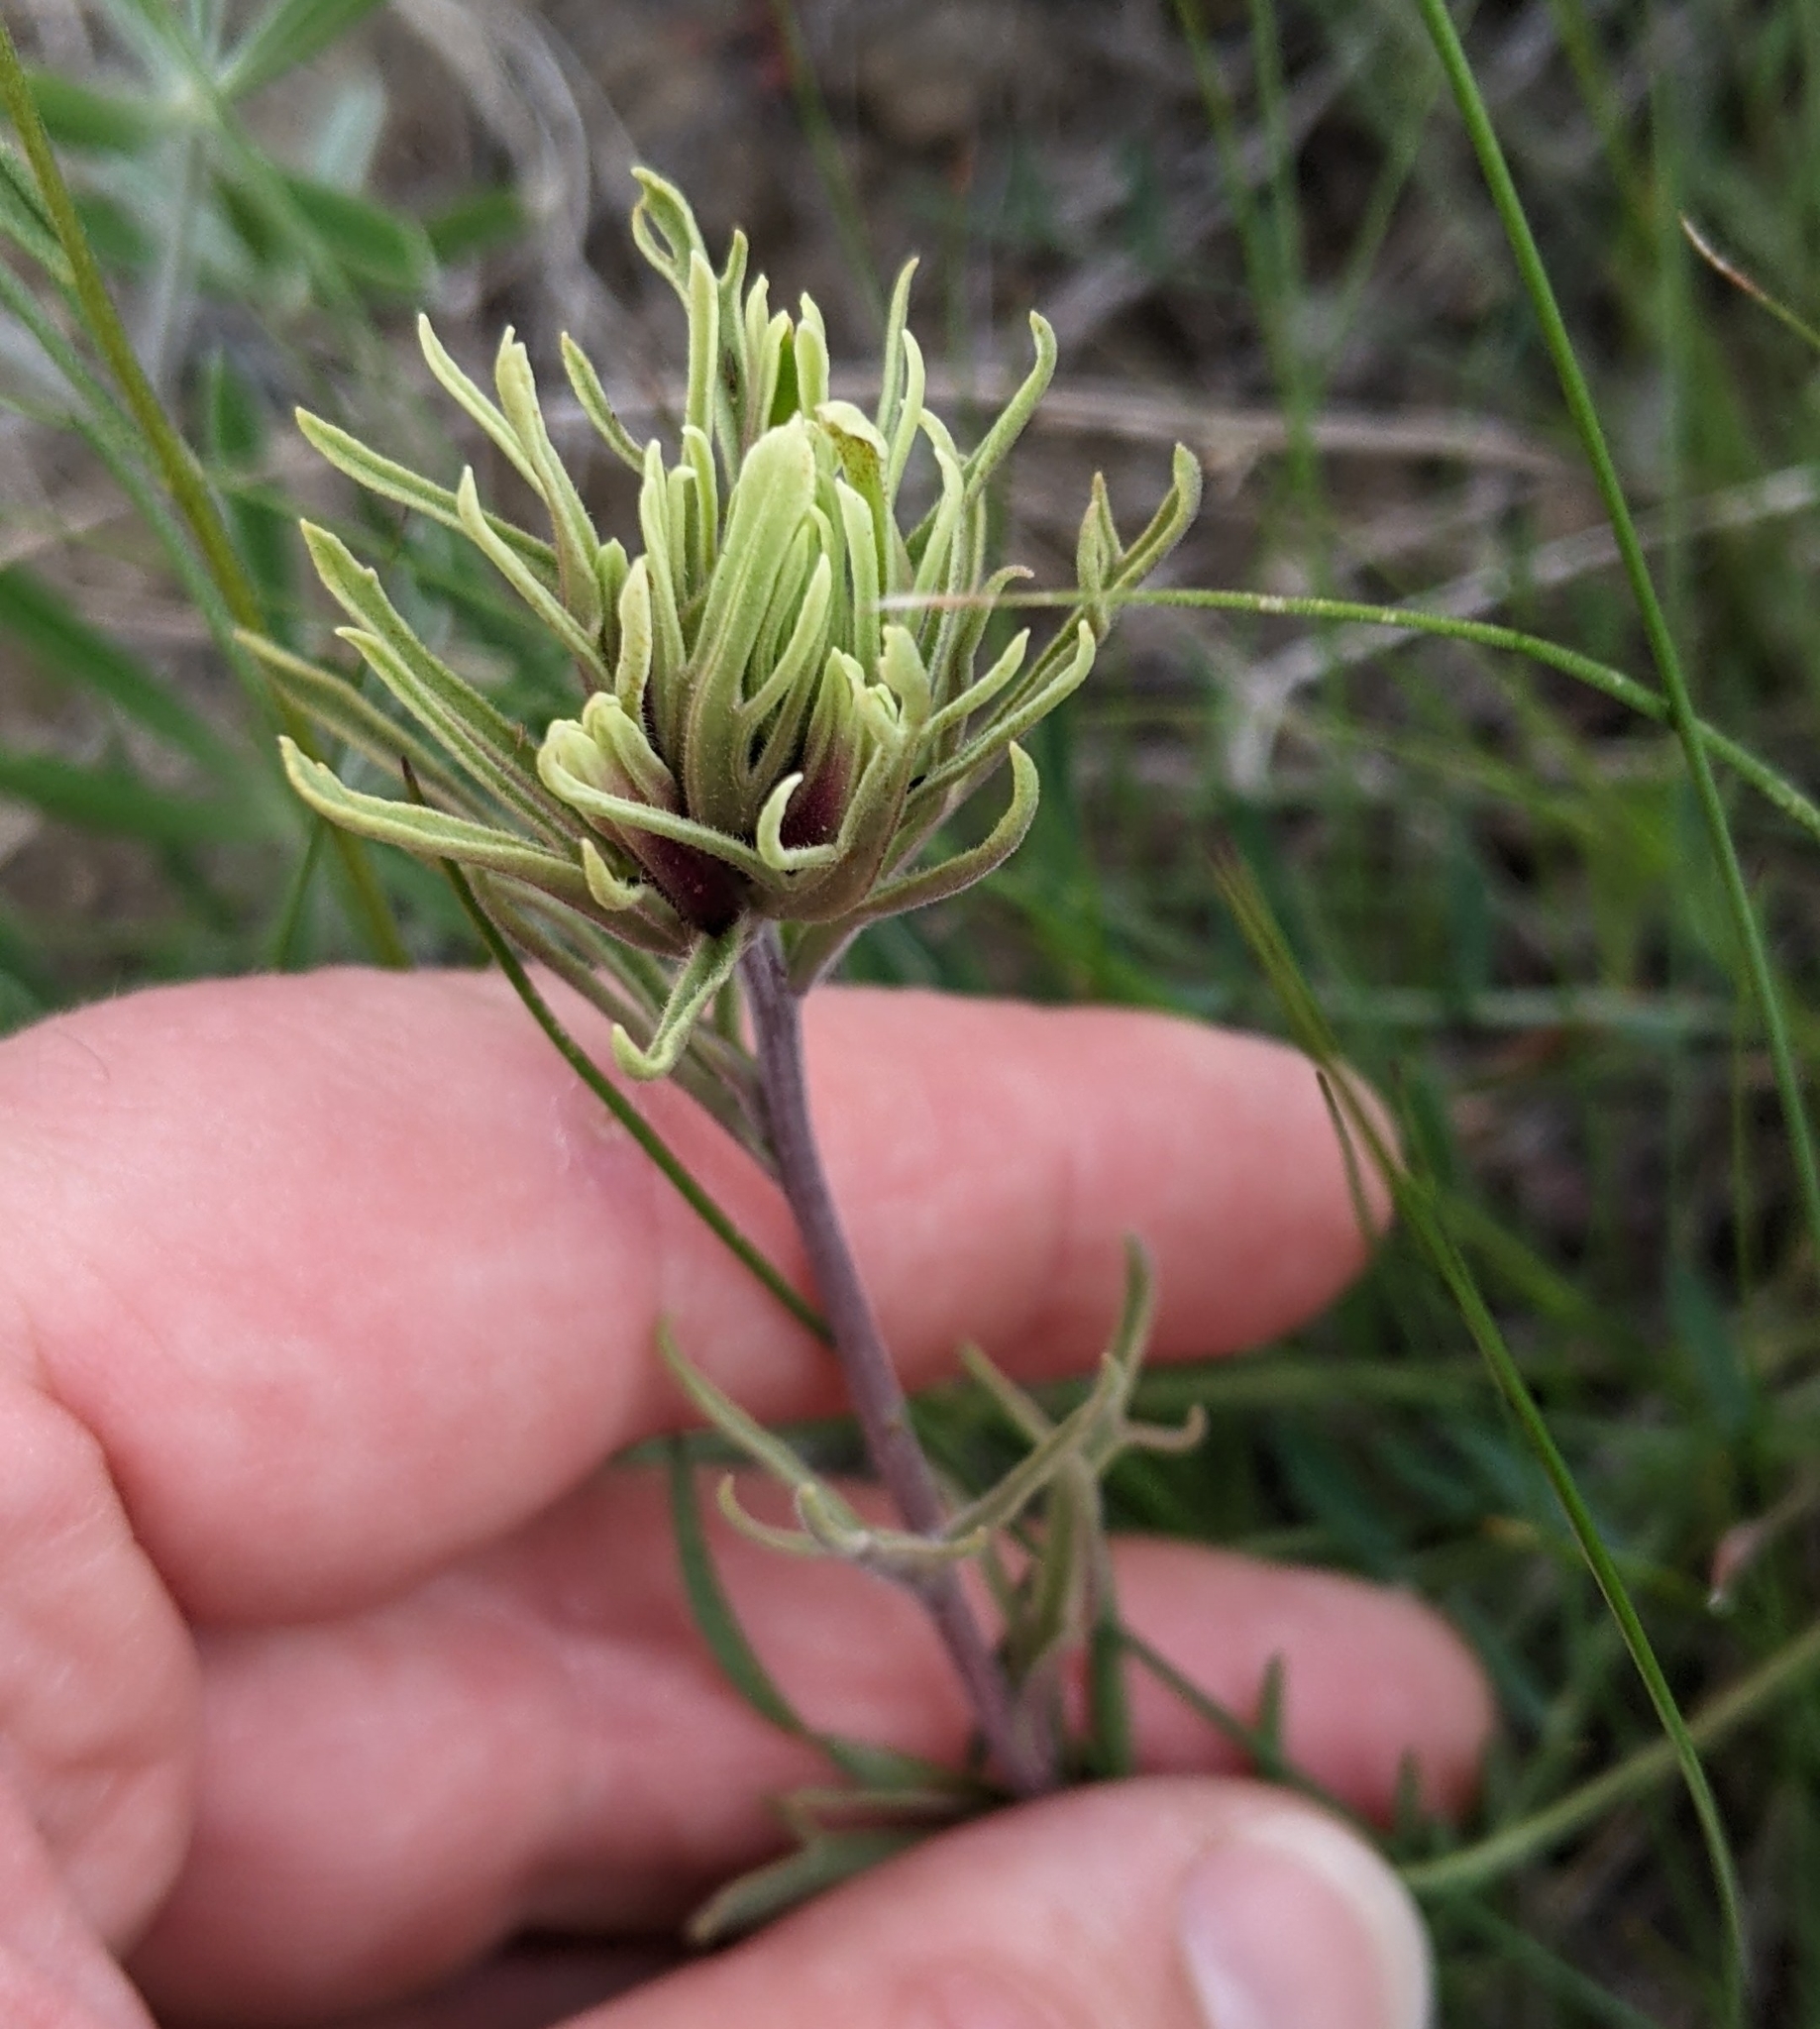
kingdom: Plantae
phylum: Tracheophyta
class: Magnoliopsida
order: Lamiales
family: Orobanchaceae
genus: Castilleja
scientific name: Castilleja thompsonii
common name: Thompson's paintbrush
